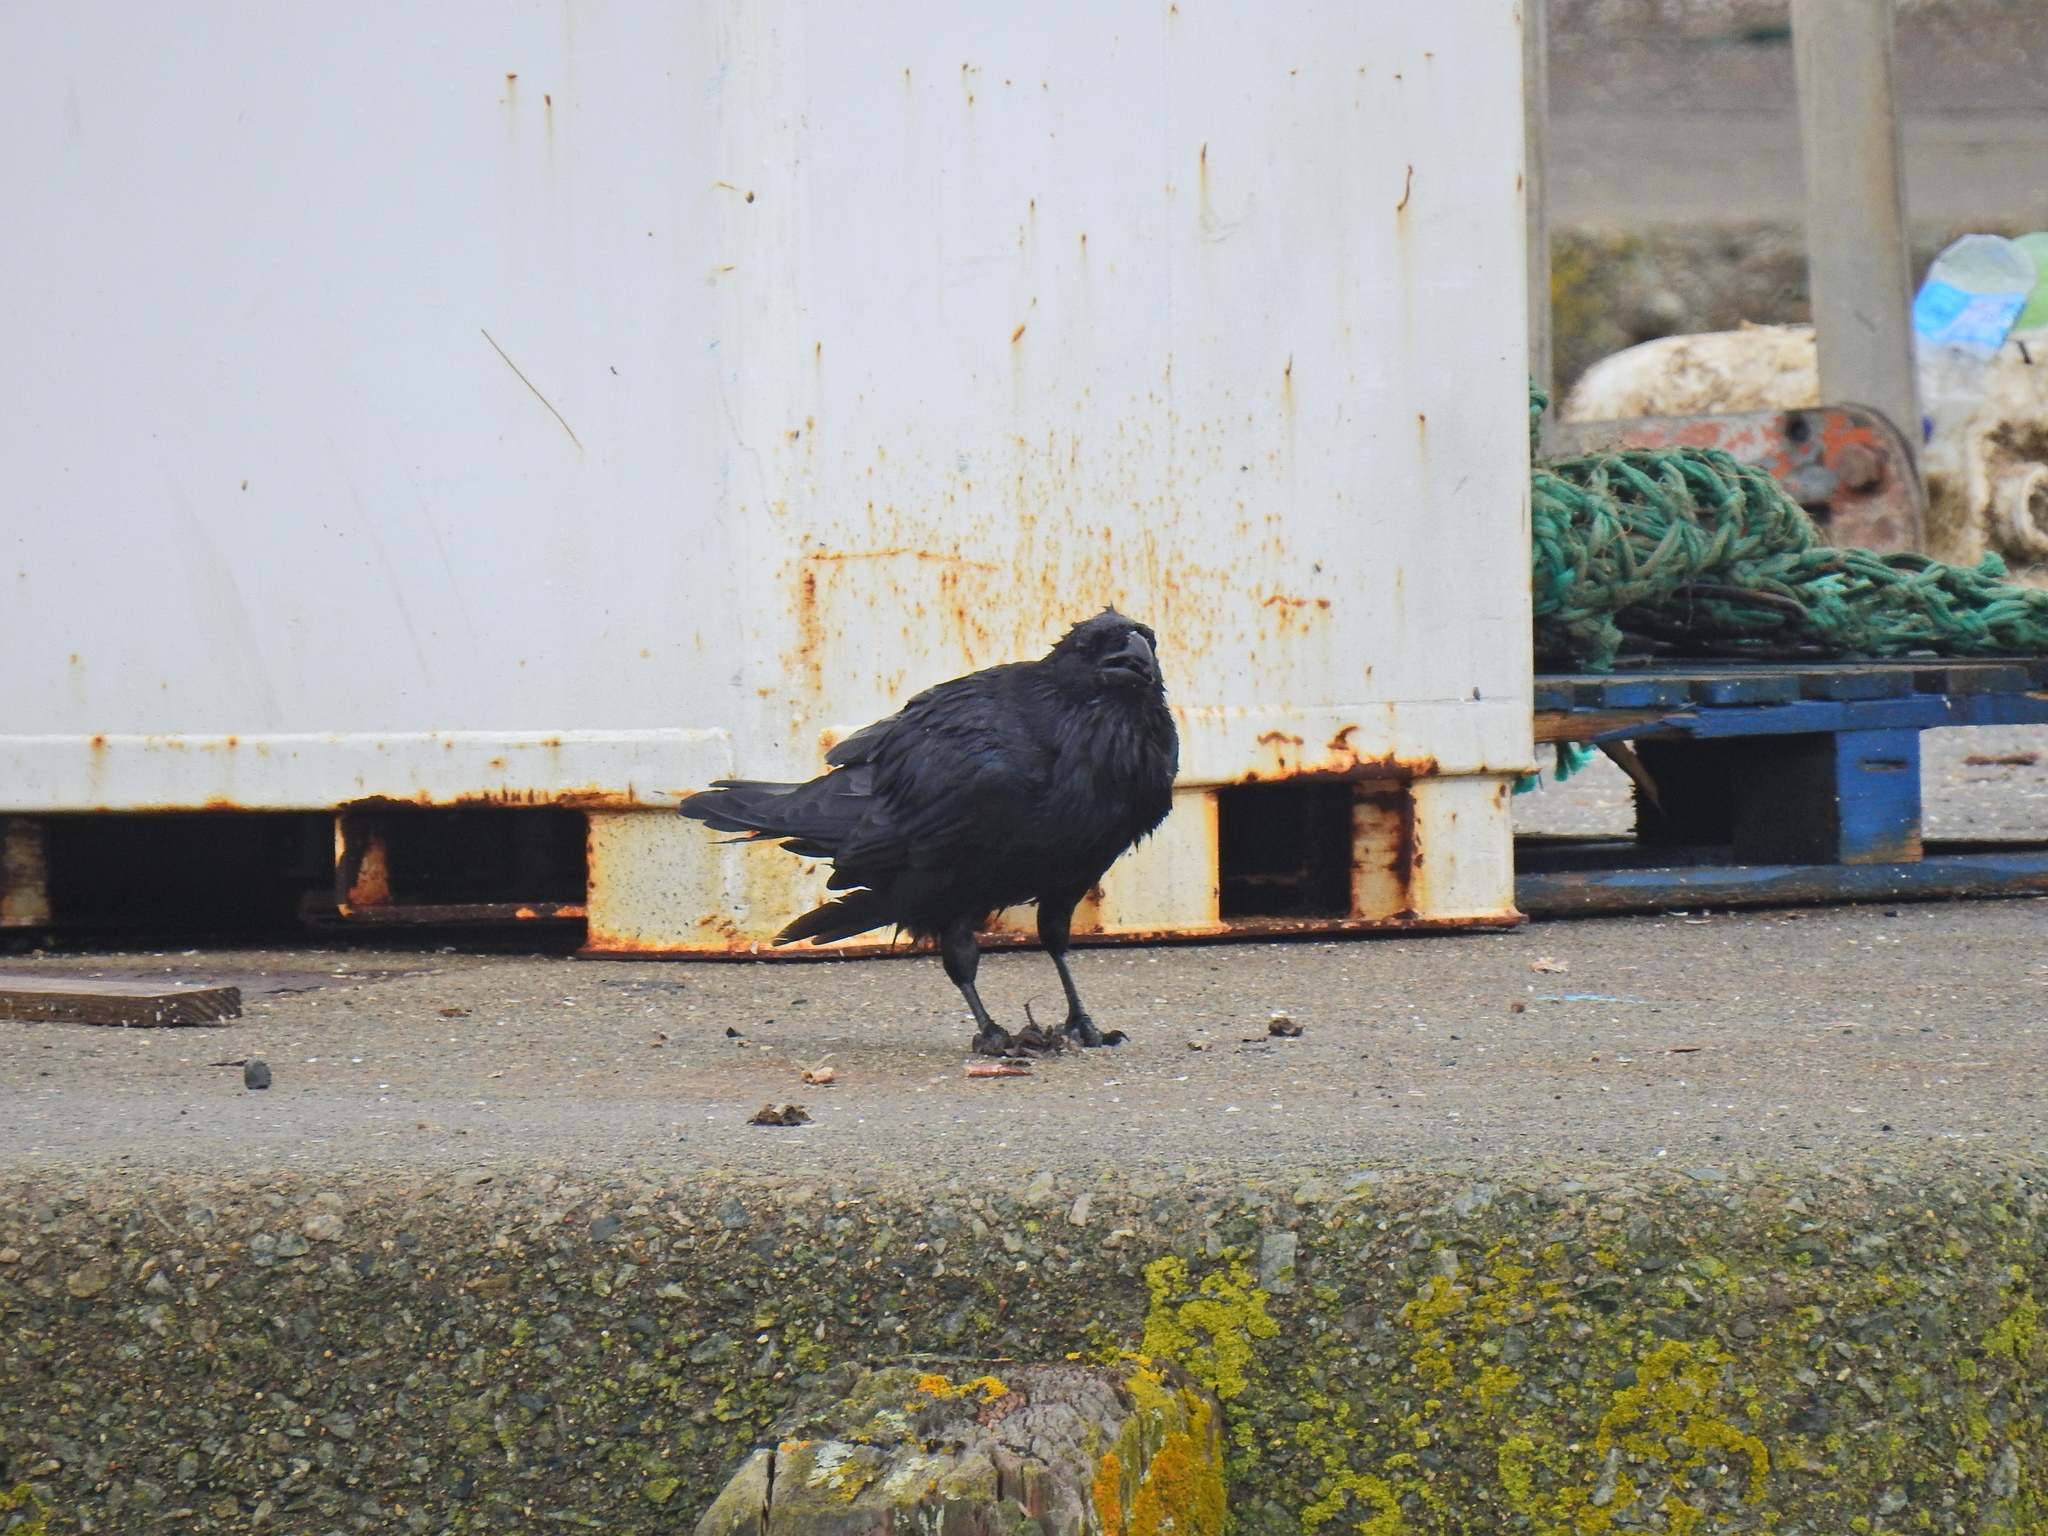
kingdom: Animalia
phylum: Chordata
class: Aves
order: Passeriformes
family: Corvidae
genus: Corvus
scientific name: Corvus corax
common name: Common raven
